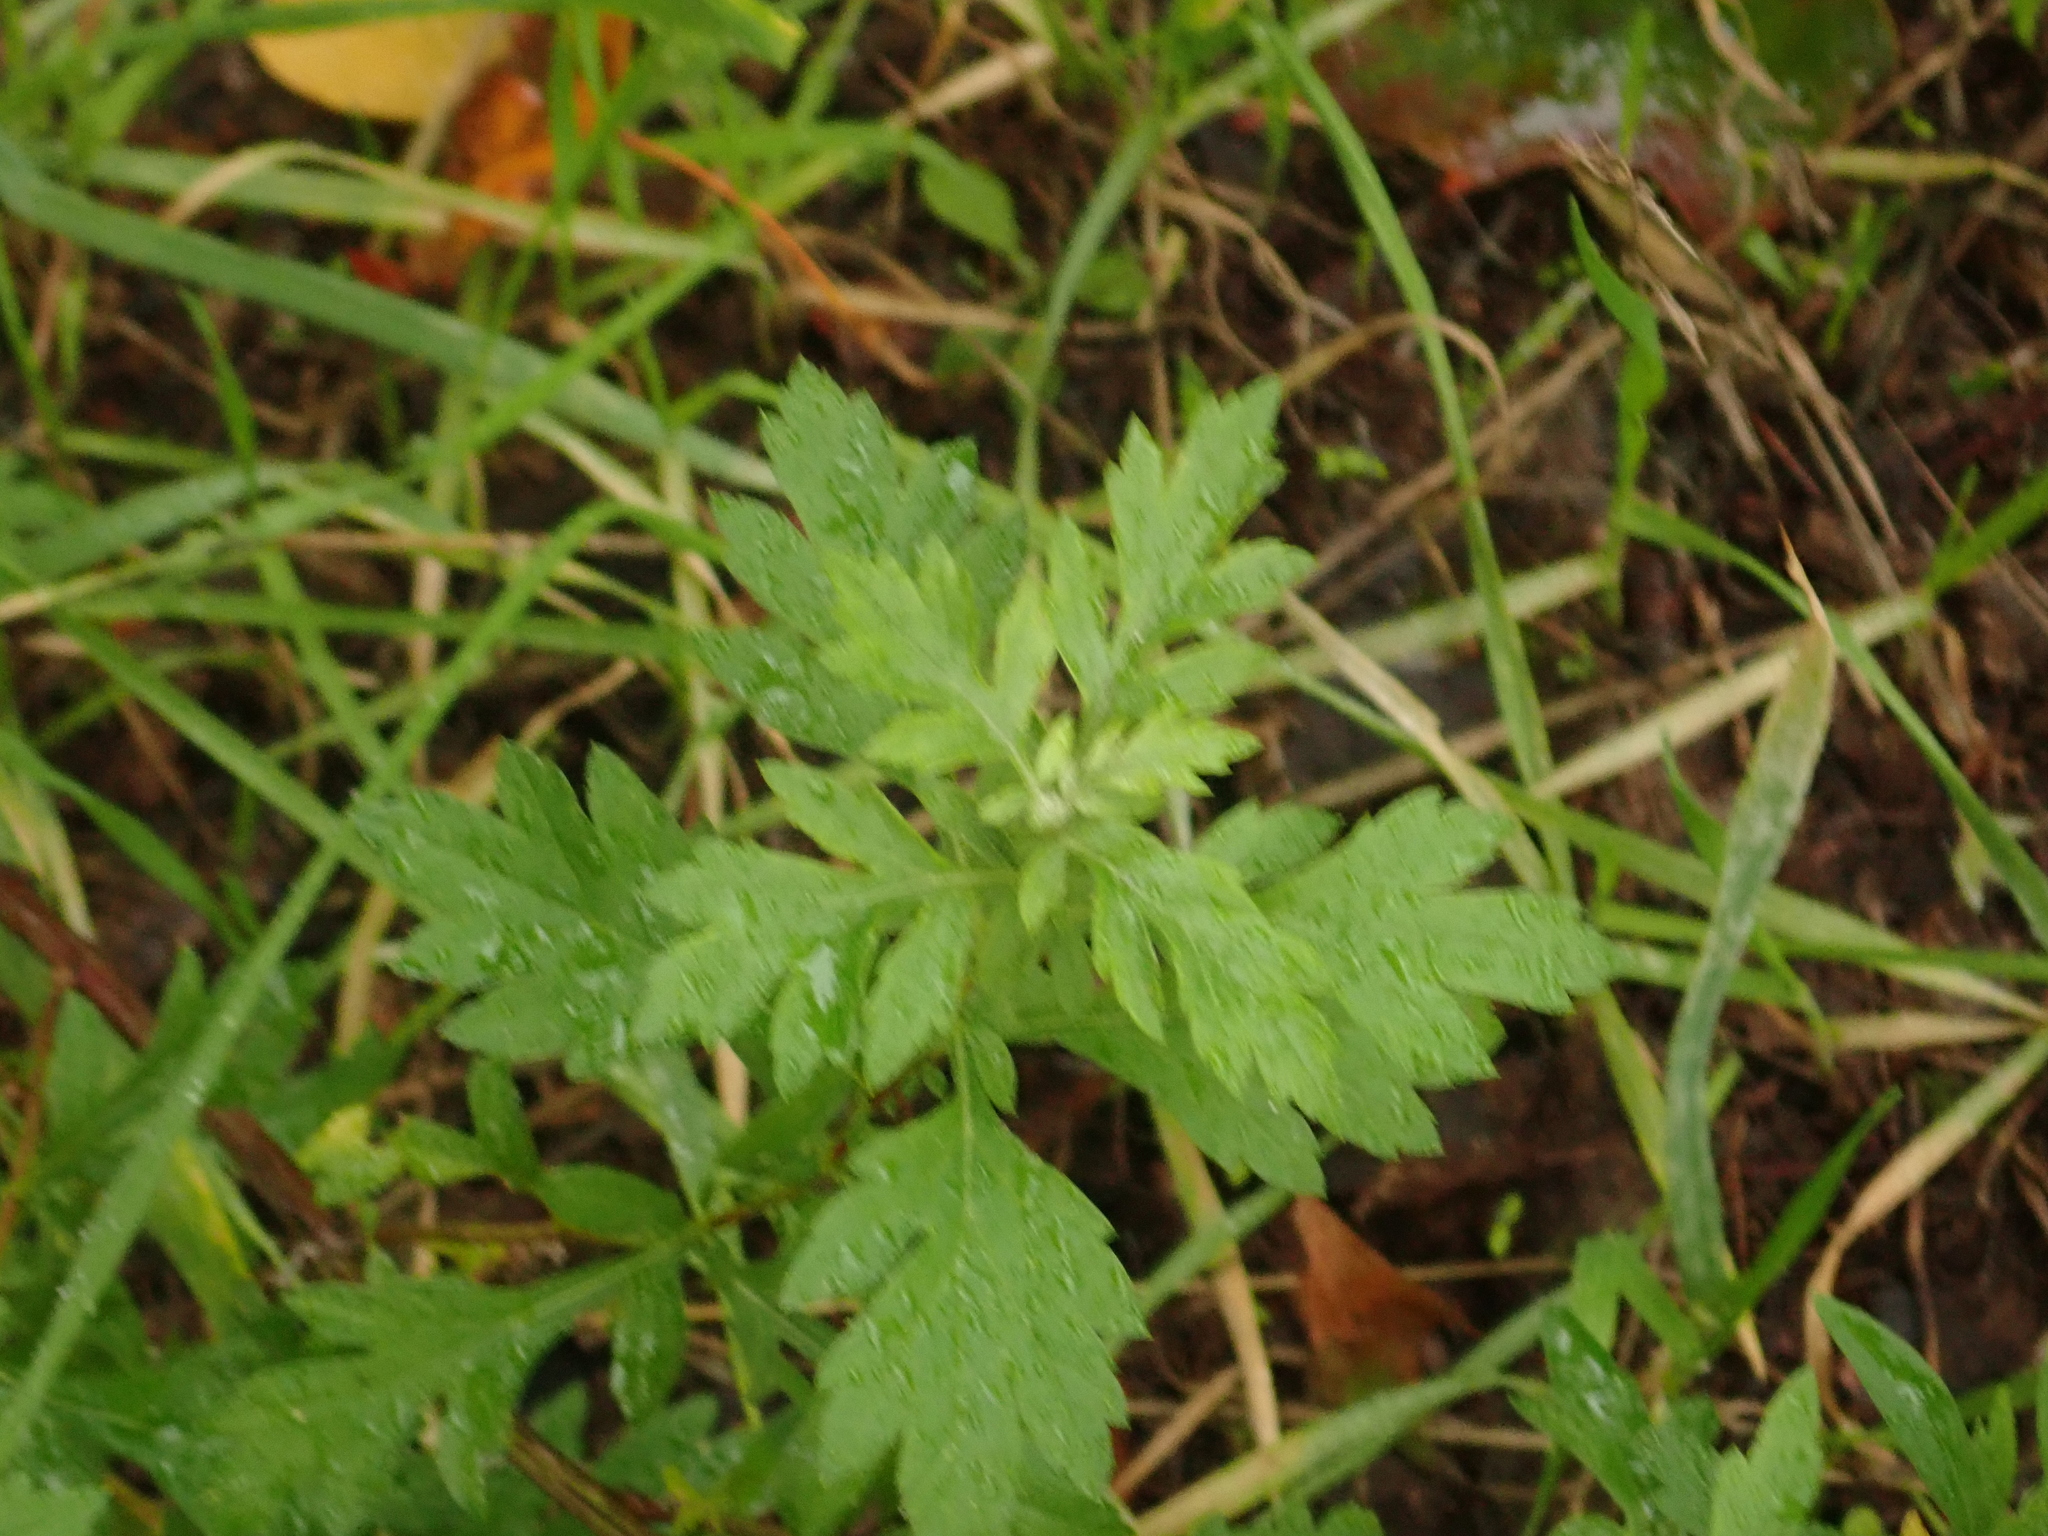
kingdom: Plantae
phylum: Tracheophyta
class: Magnoliopsida
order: Asterales
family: Asteraceae
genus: Artemisia
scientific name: Artemisia vulgaris
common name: Mugwort
